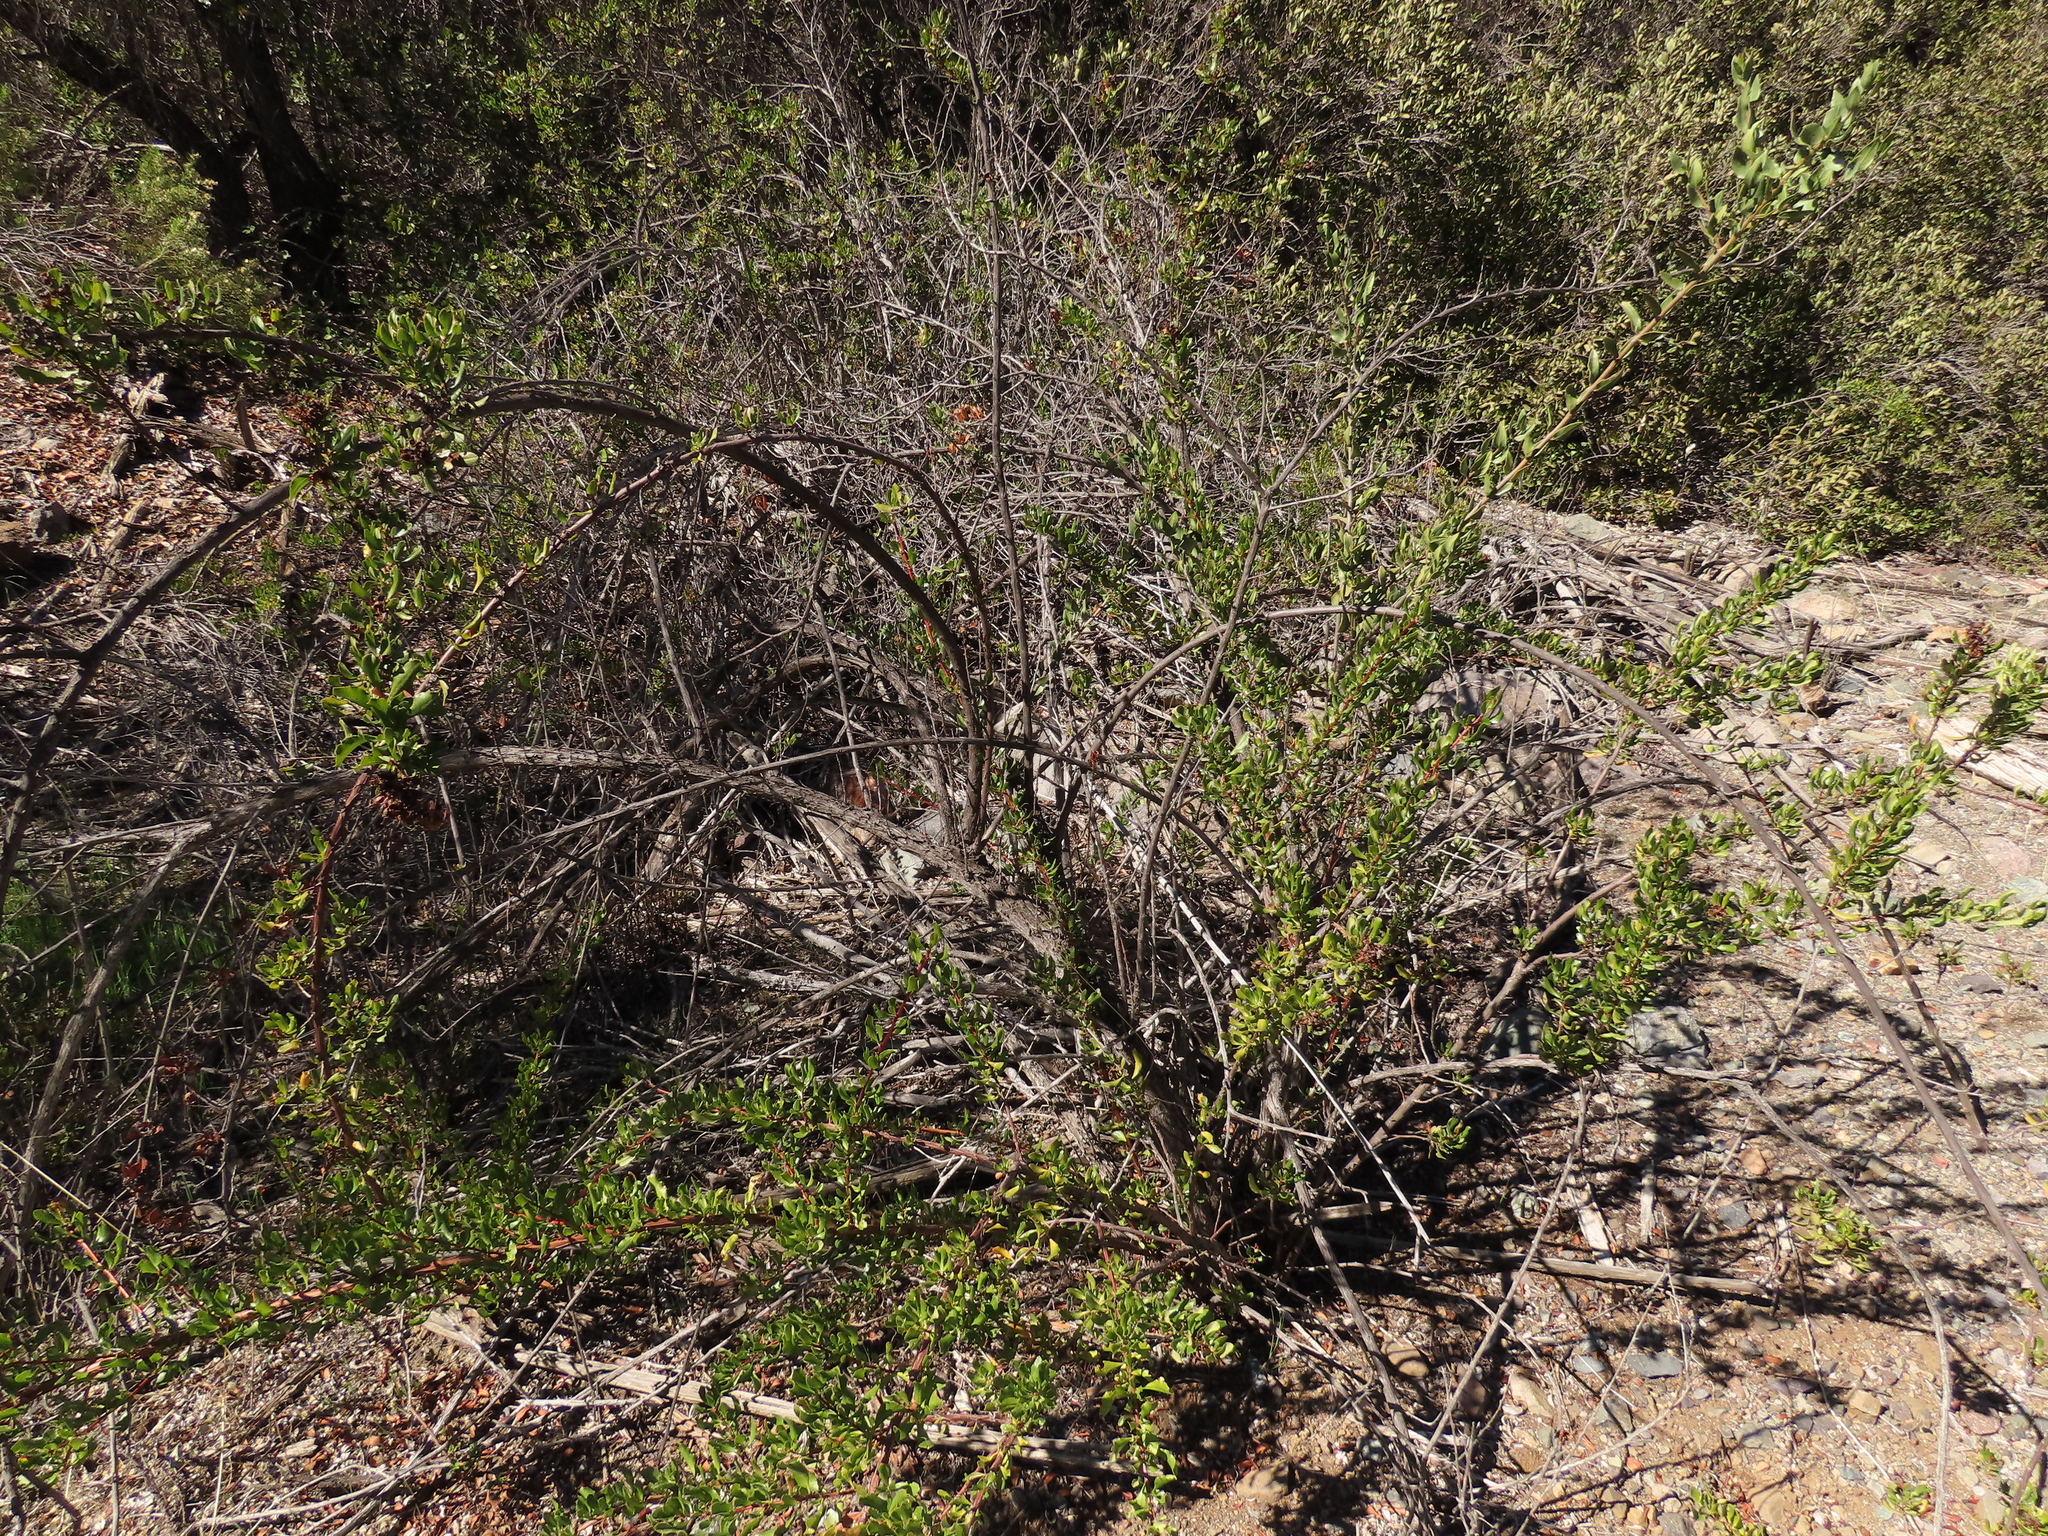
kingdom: Plantae
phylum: Tracheophyta
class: Magnoliopsida
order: Escalloniales
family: Escalloniaceae
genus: Escallonia
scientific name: Escallonia illinita
